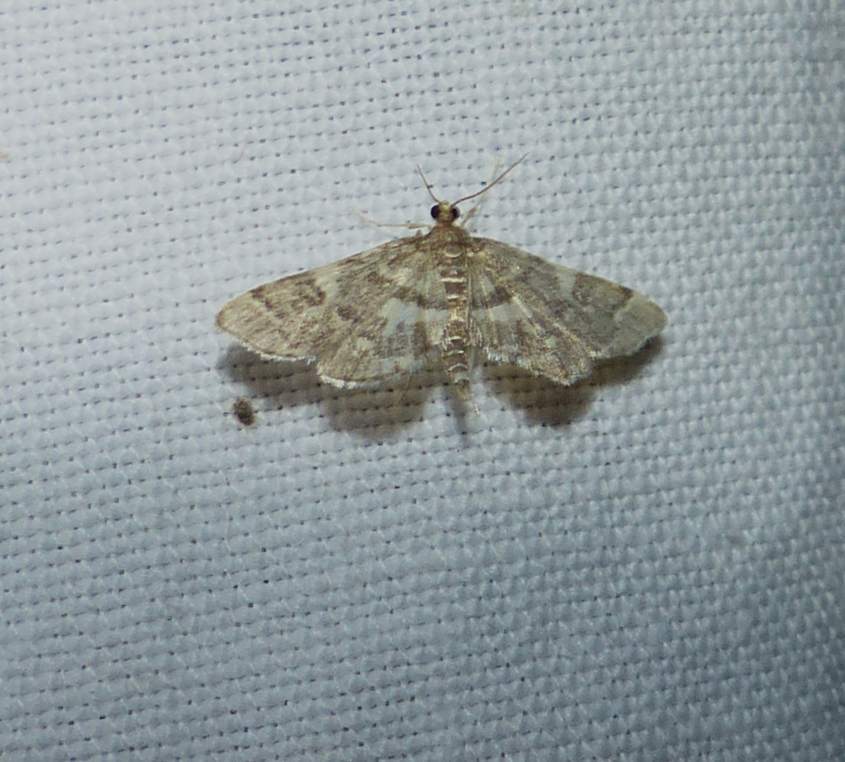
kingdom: Animalia
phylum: Arthropoda
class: Insecta
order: Lepidoptera
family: Crambidae
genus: Anageshna
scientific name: Anageshna primordialis
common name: Yellow-spotted webworm moth
